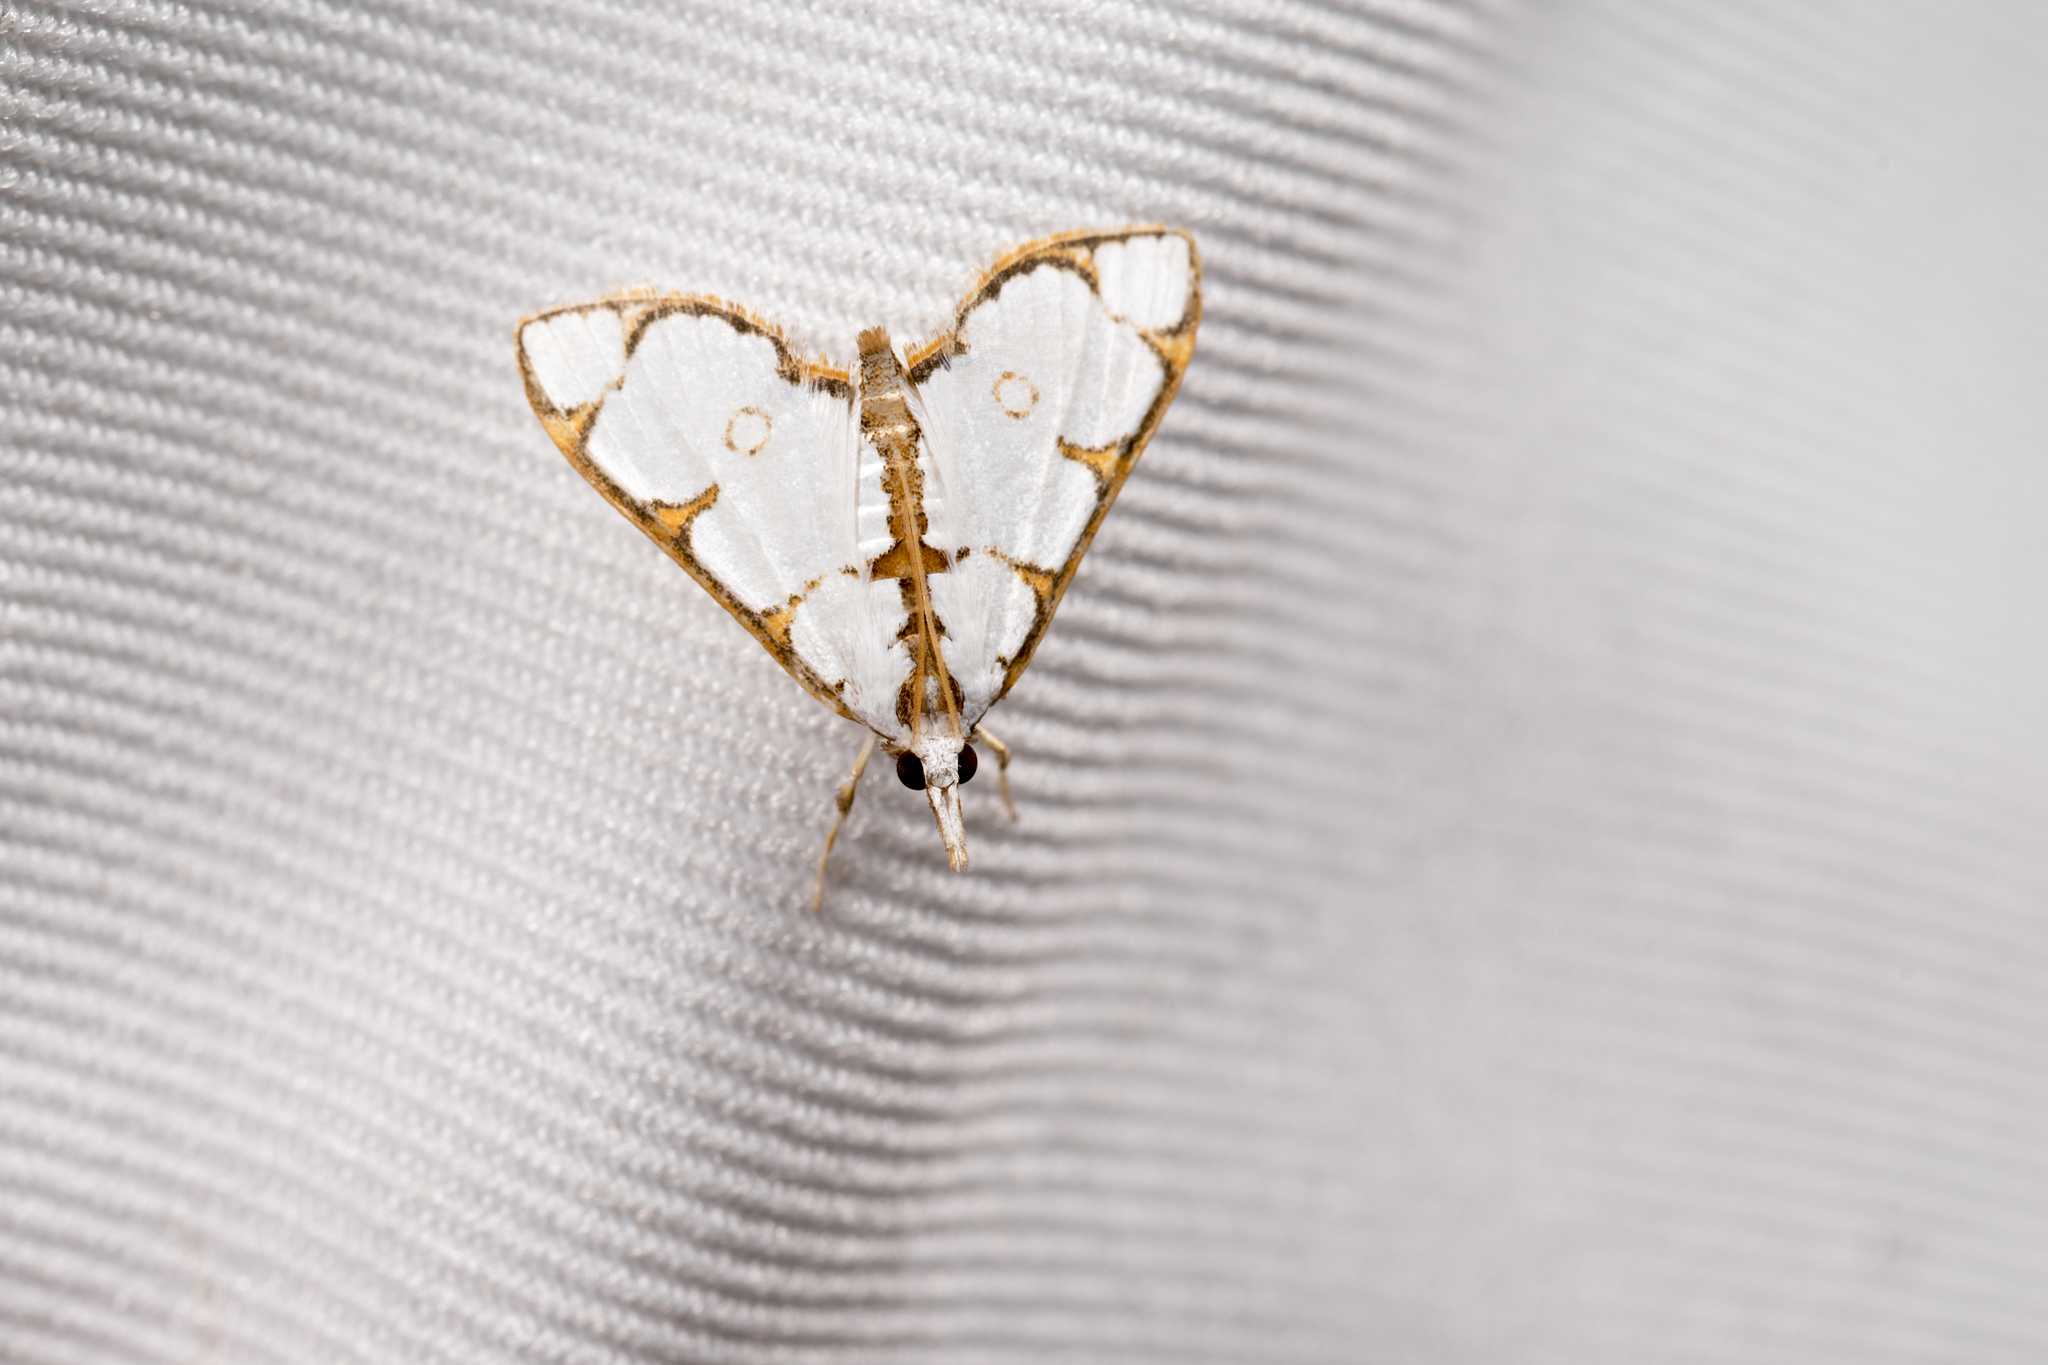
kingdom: Animalia
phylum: Arthropoda
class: Insecta
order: Lepidoptera
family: Crambidae
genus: Cirrhochrista
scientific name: Cirrhochrista brizoalis
